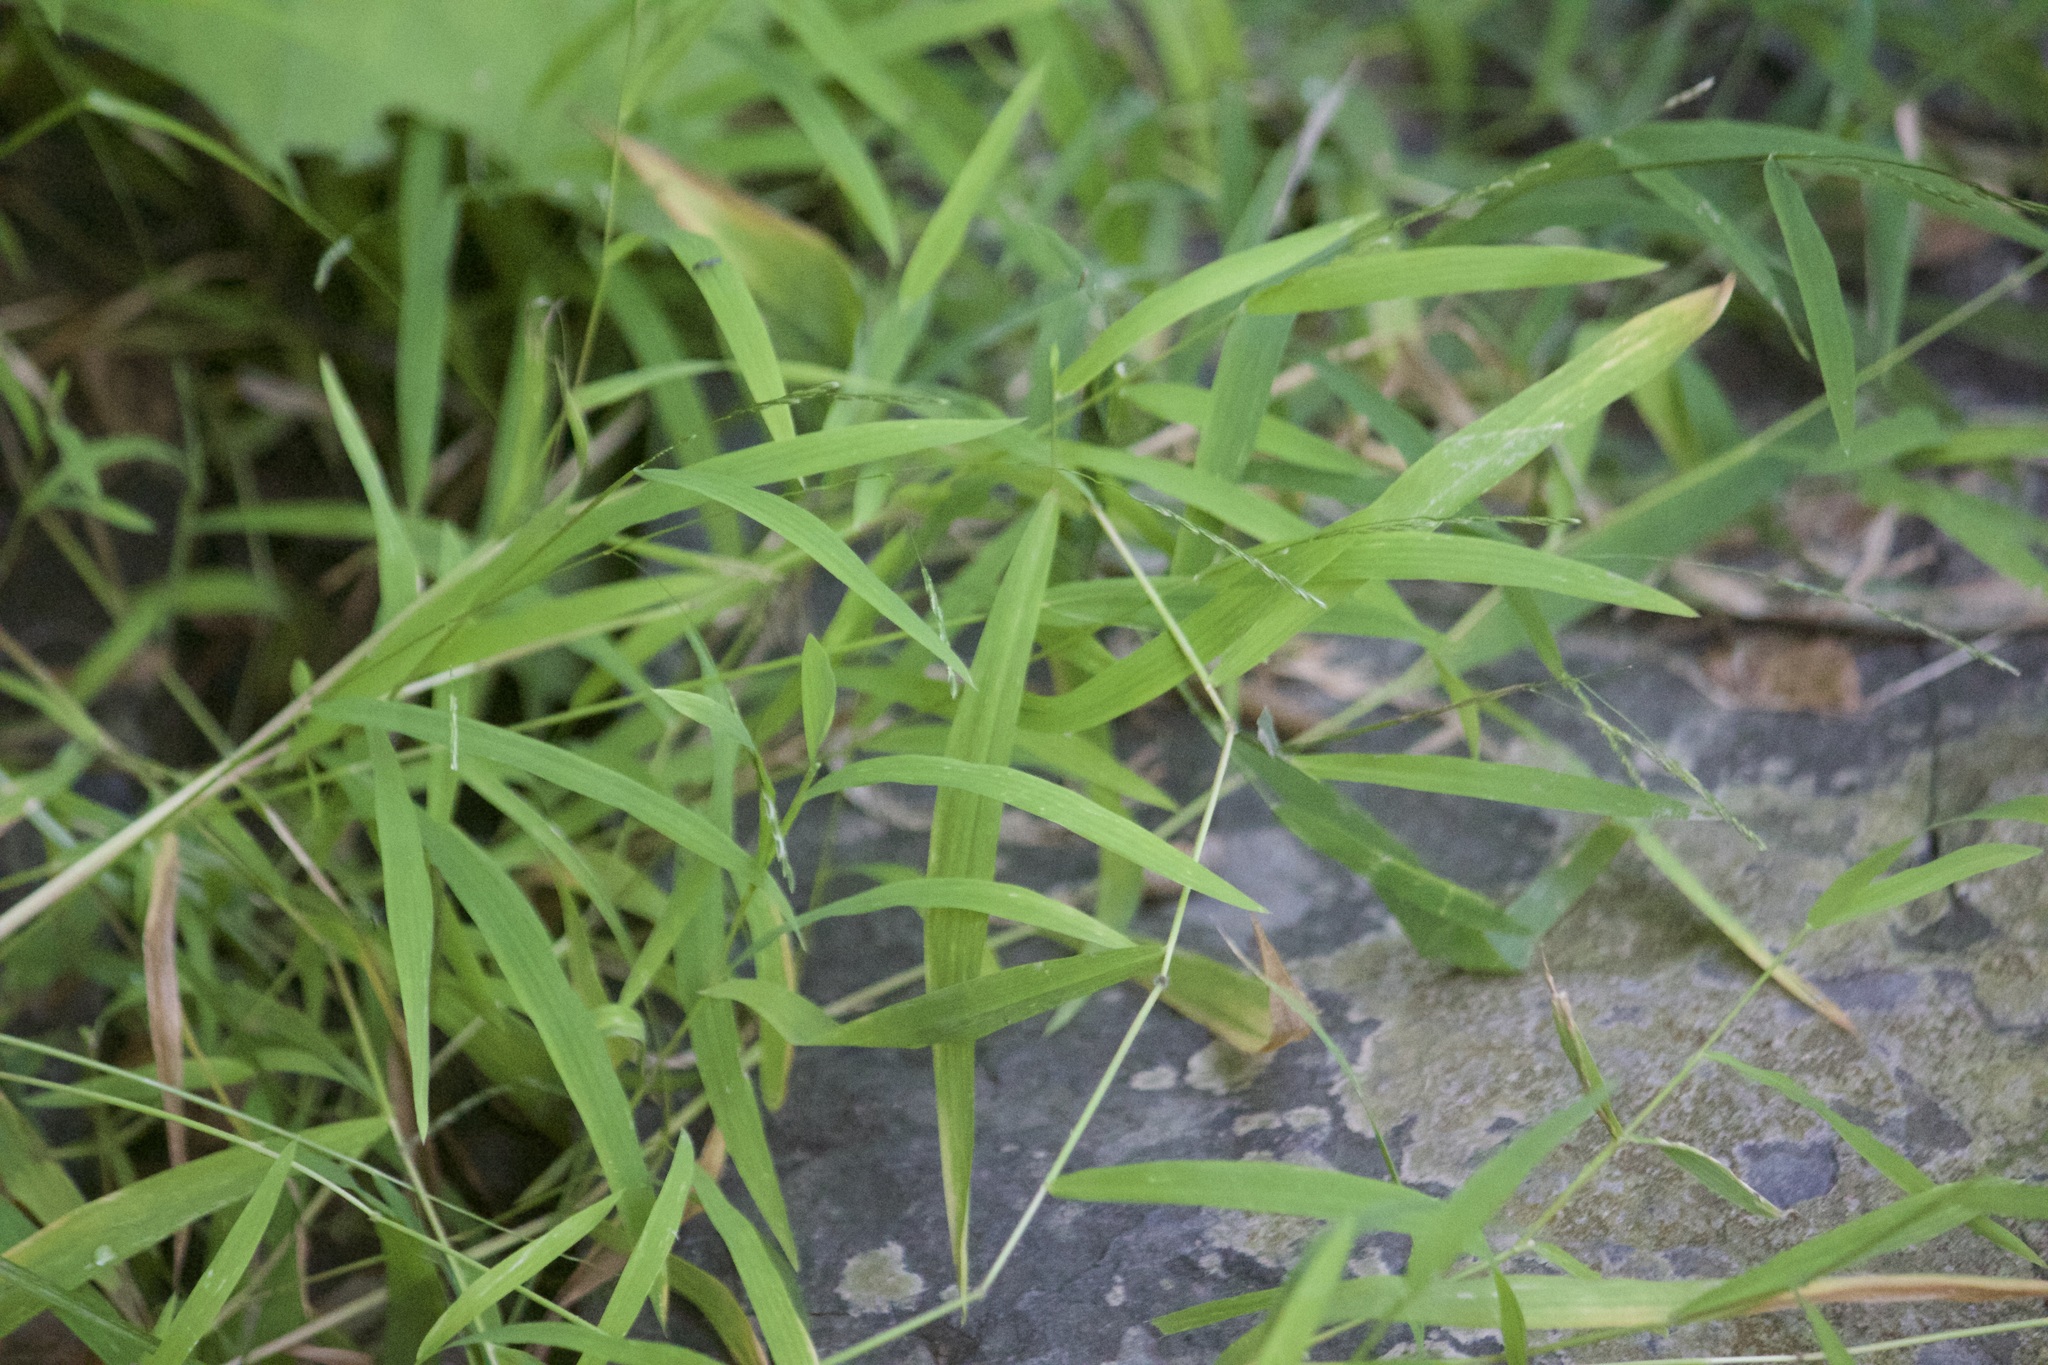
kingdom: Plantae
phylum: Tracheophyta
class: Liliopsida
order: Poales
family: Poaceae
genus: Leersia
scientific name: Leersia virginica
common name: White cutgrass
